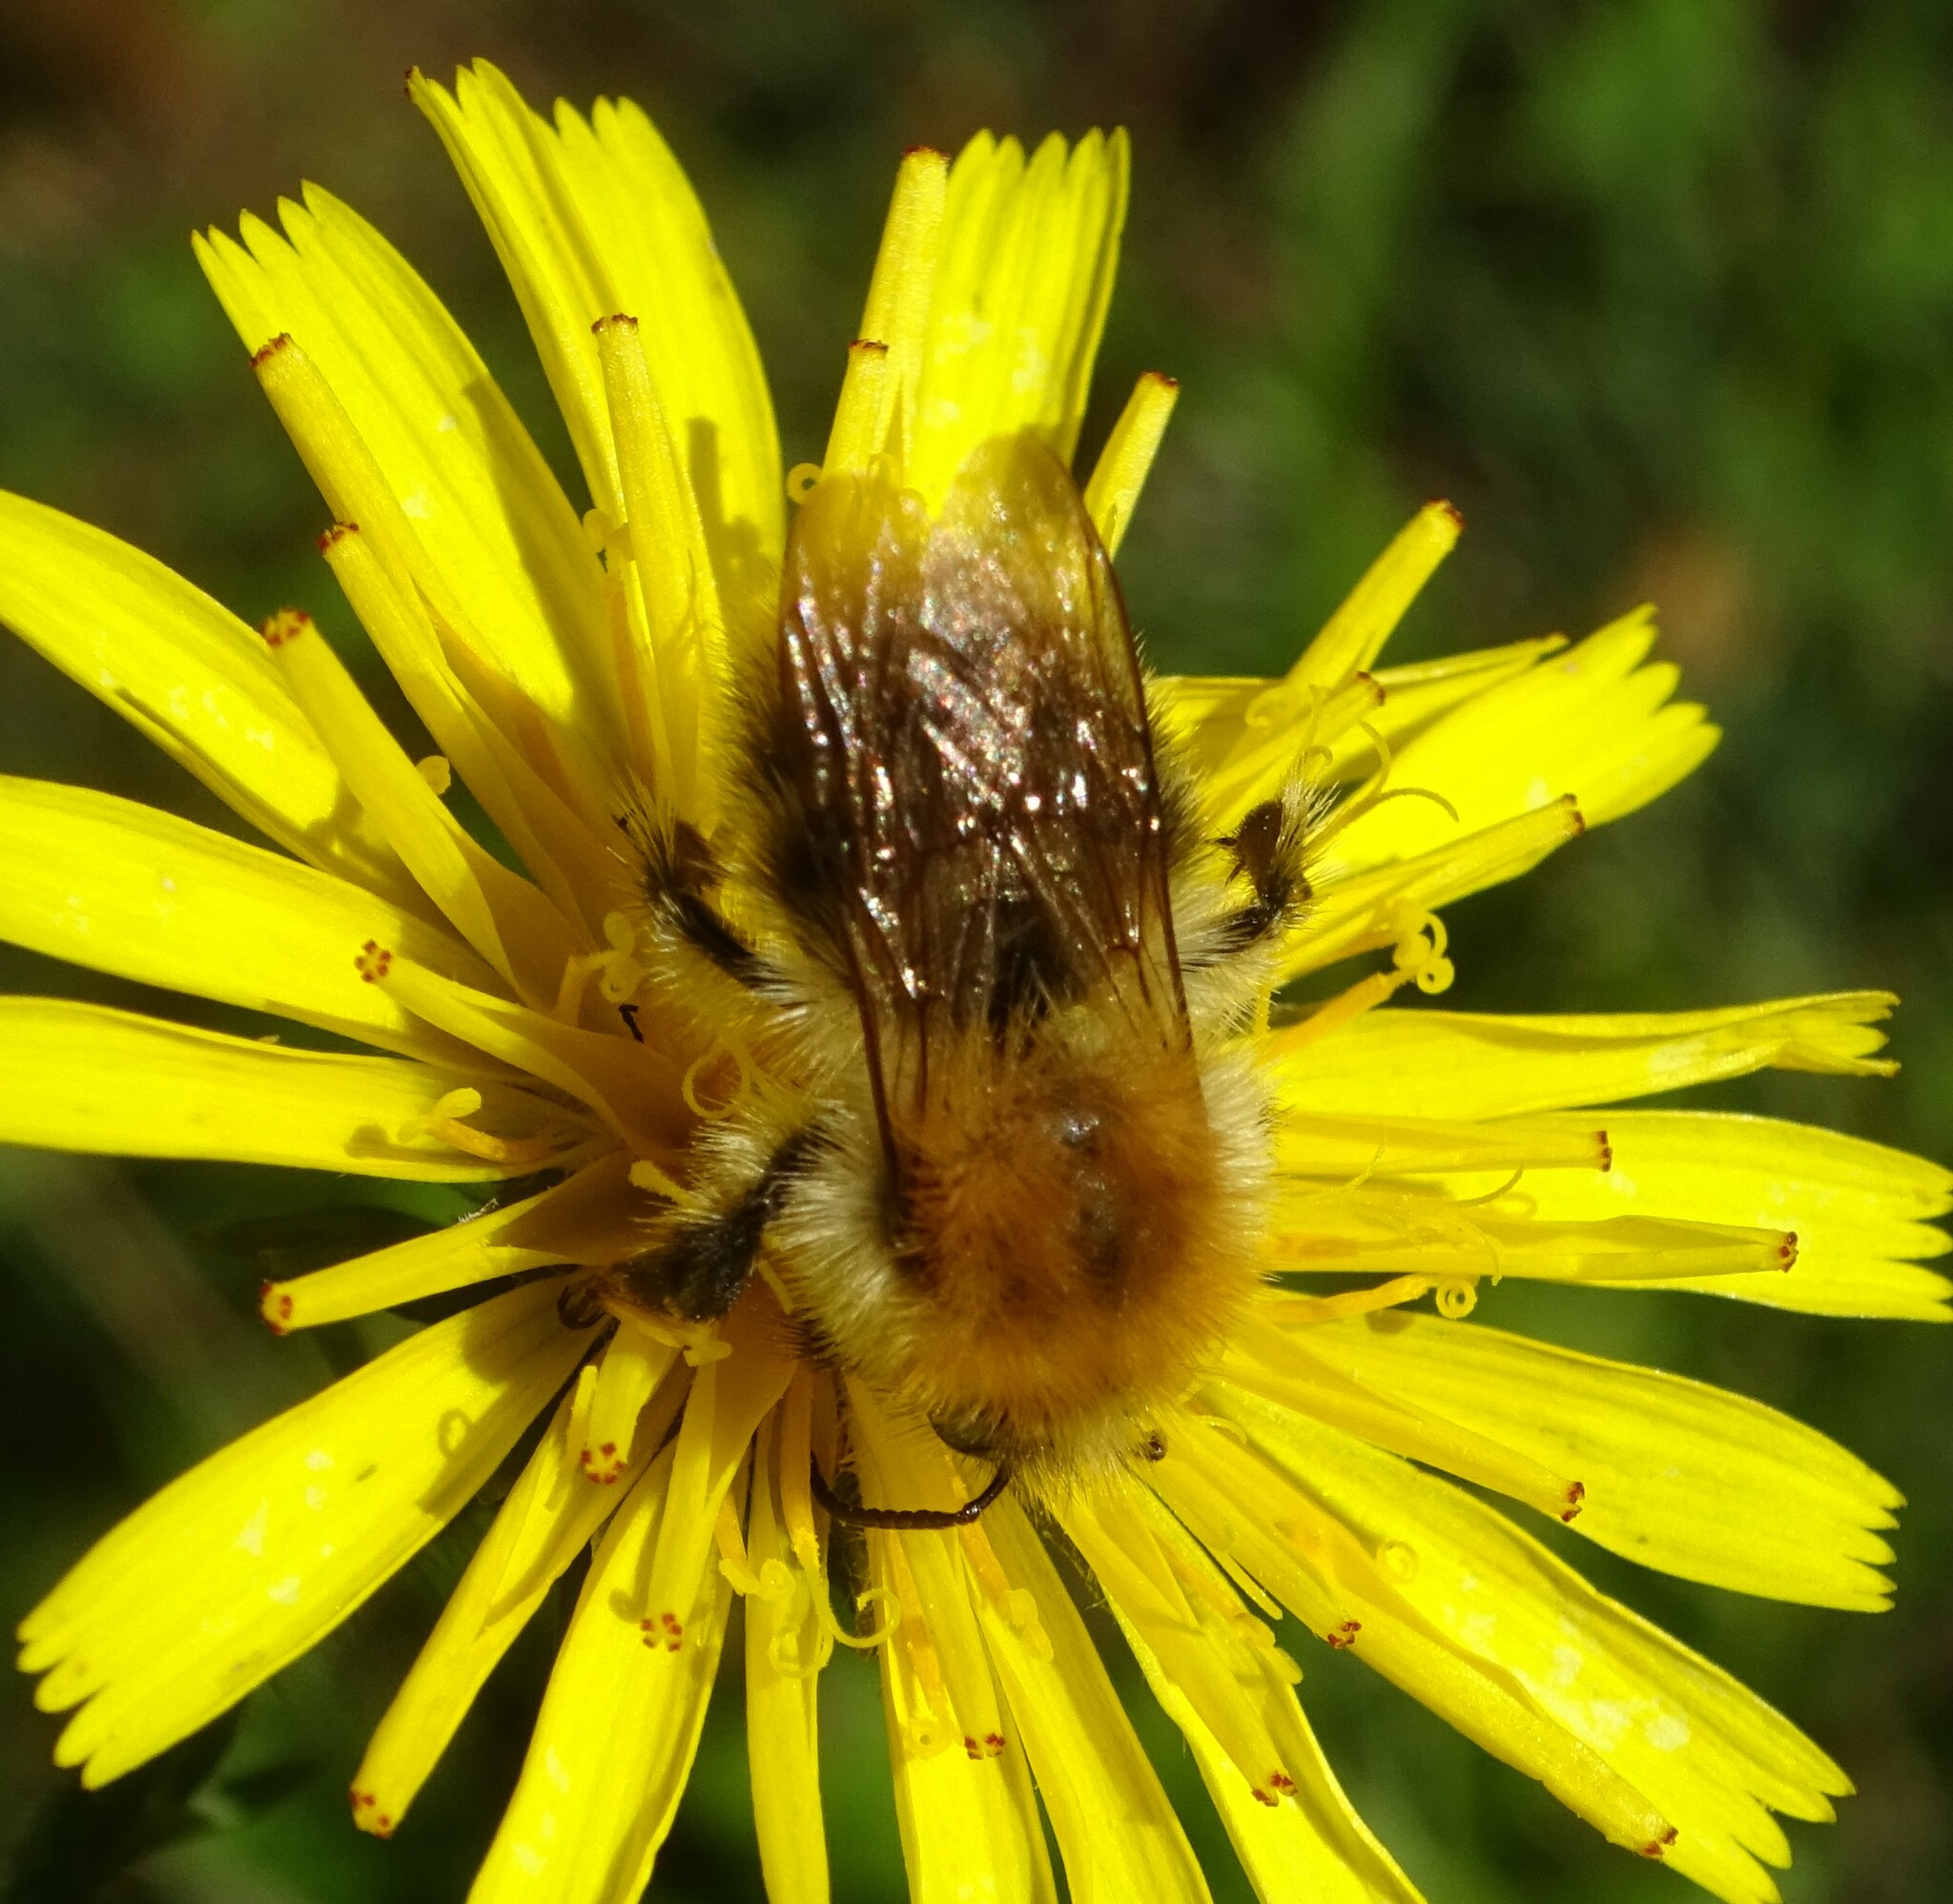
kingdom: Animalia
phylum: Arthropoda
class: Insecta
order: Hymenoptera
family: Apidae
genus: Bombus
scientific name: Bombus pascuorum
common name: Common carder bee
